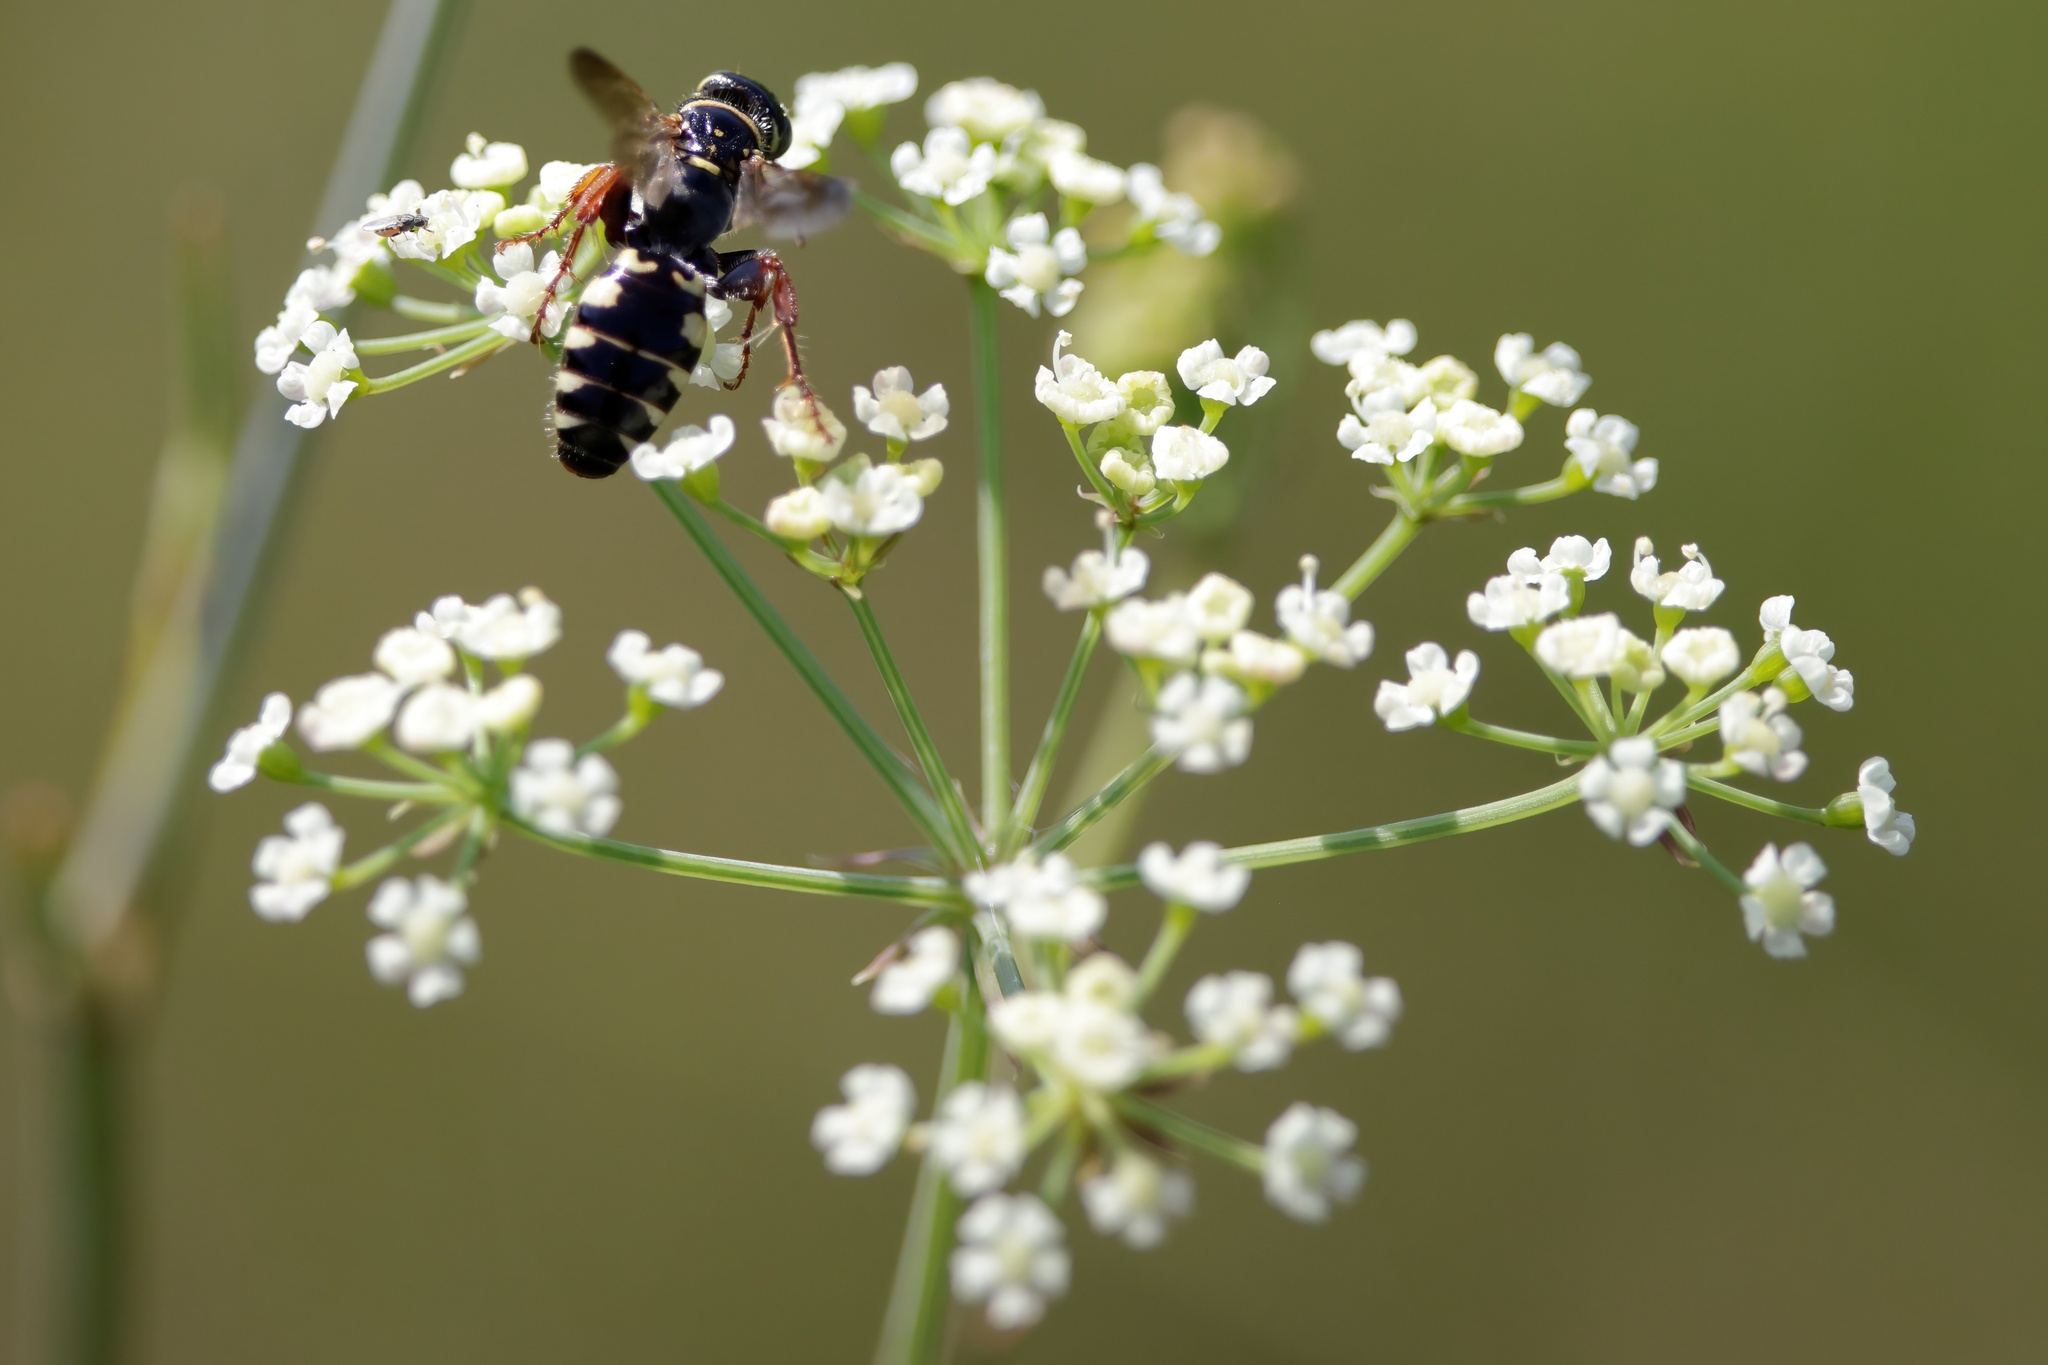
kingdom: Animalia
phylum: Arthropoda
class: Insecta
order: Hymenoptera
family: Tiphiidae
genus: Myzinum
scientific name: Myzinum carolinianum
